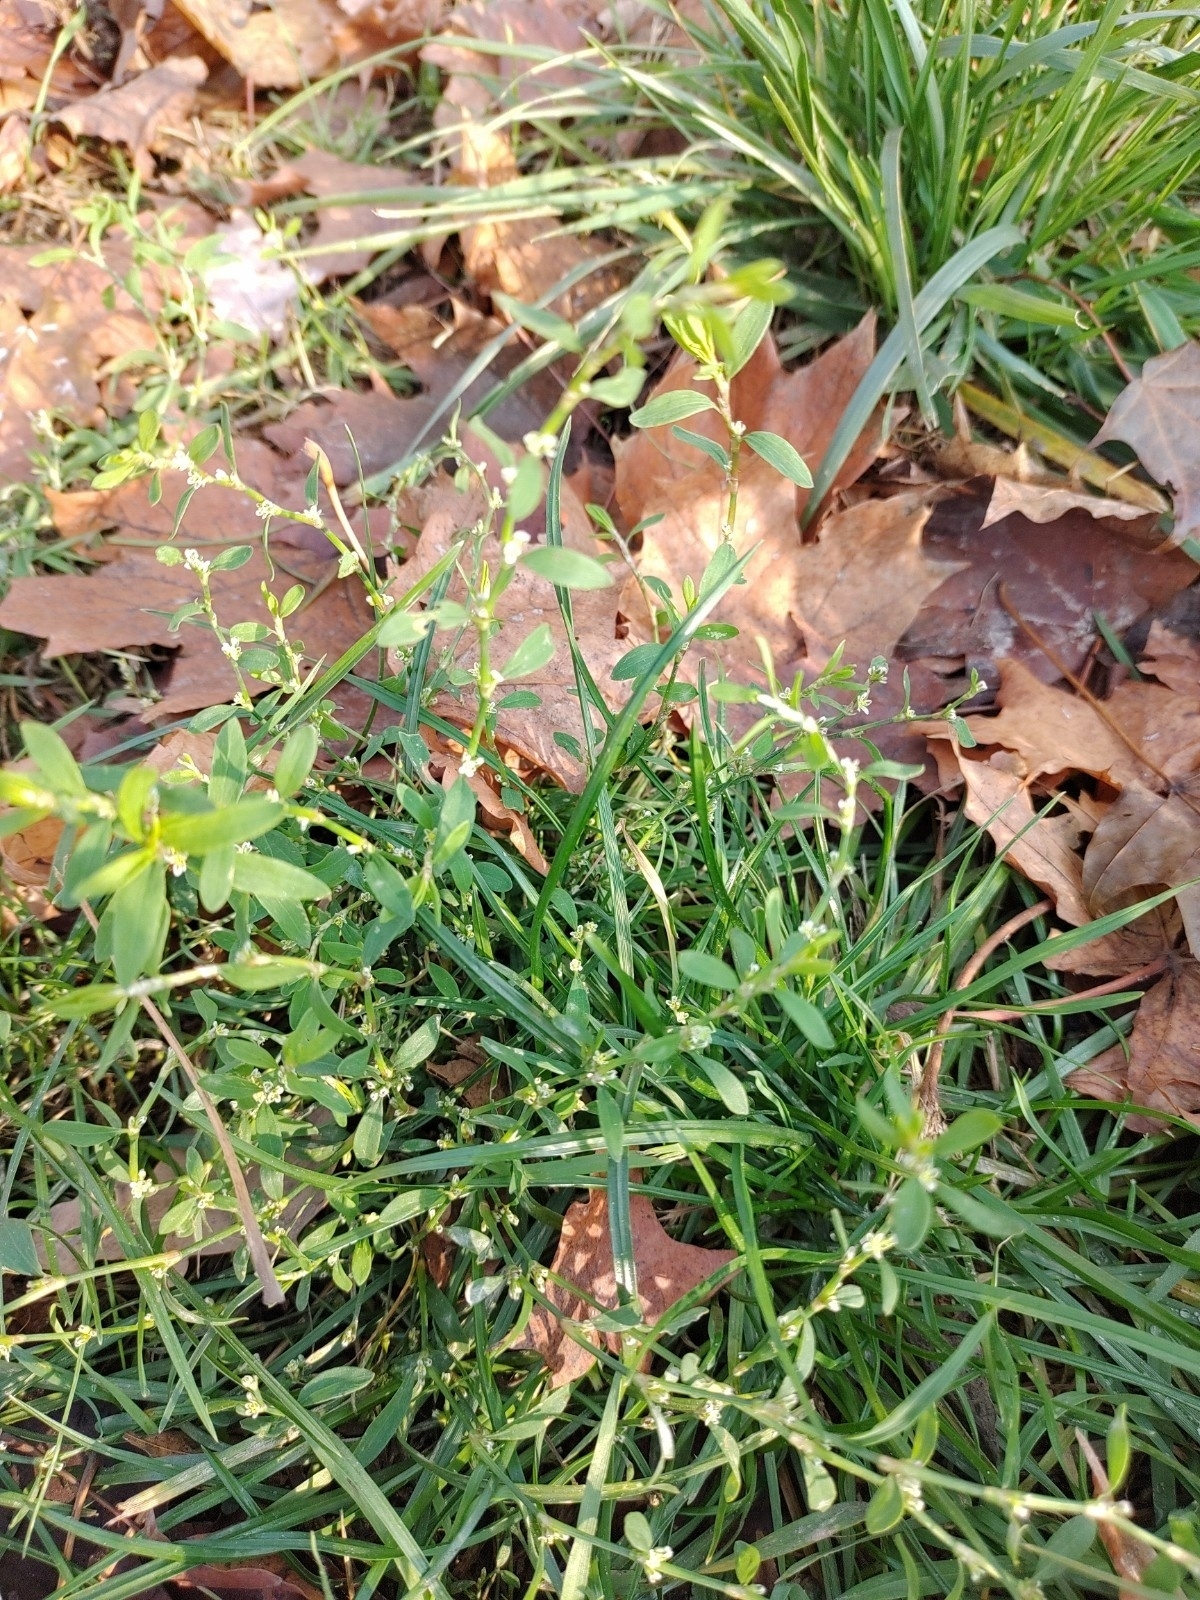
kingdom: Plantae
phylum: Tracheophyta
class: Magnoliopsida
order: Caryophyllales
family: Polygonaceae
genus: Polygonum
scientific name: Polygonum aviculare
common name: Prostrate knotweed
